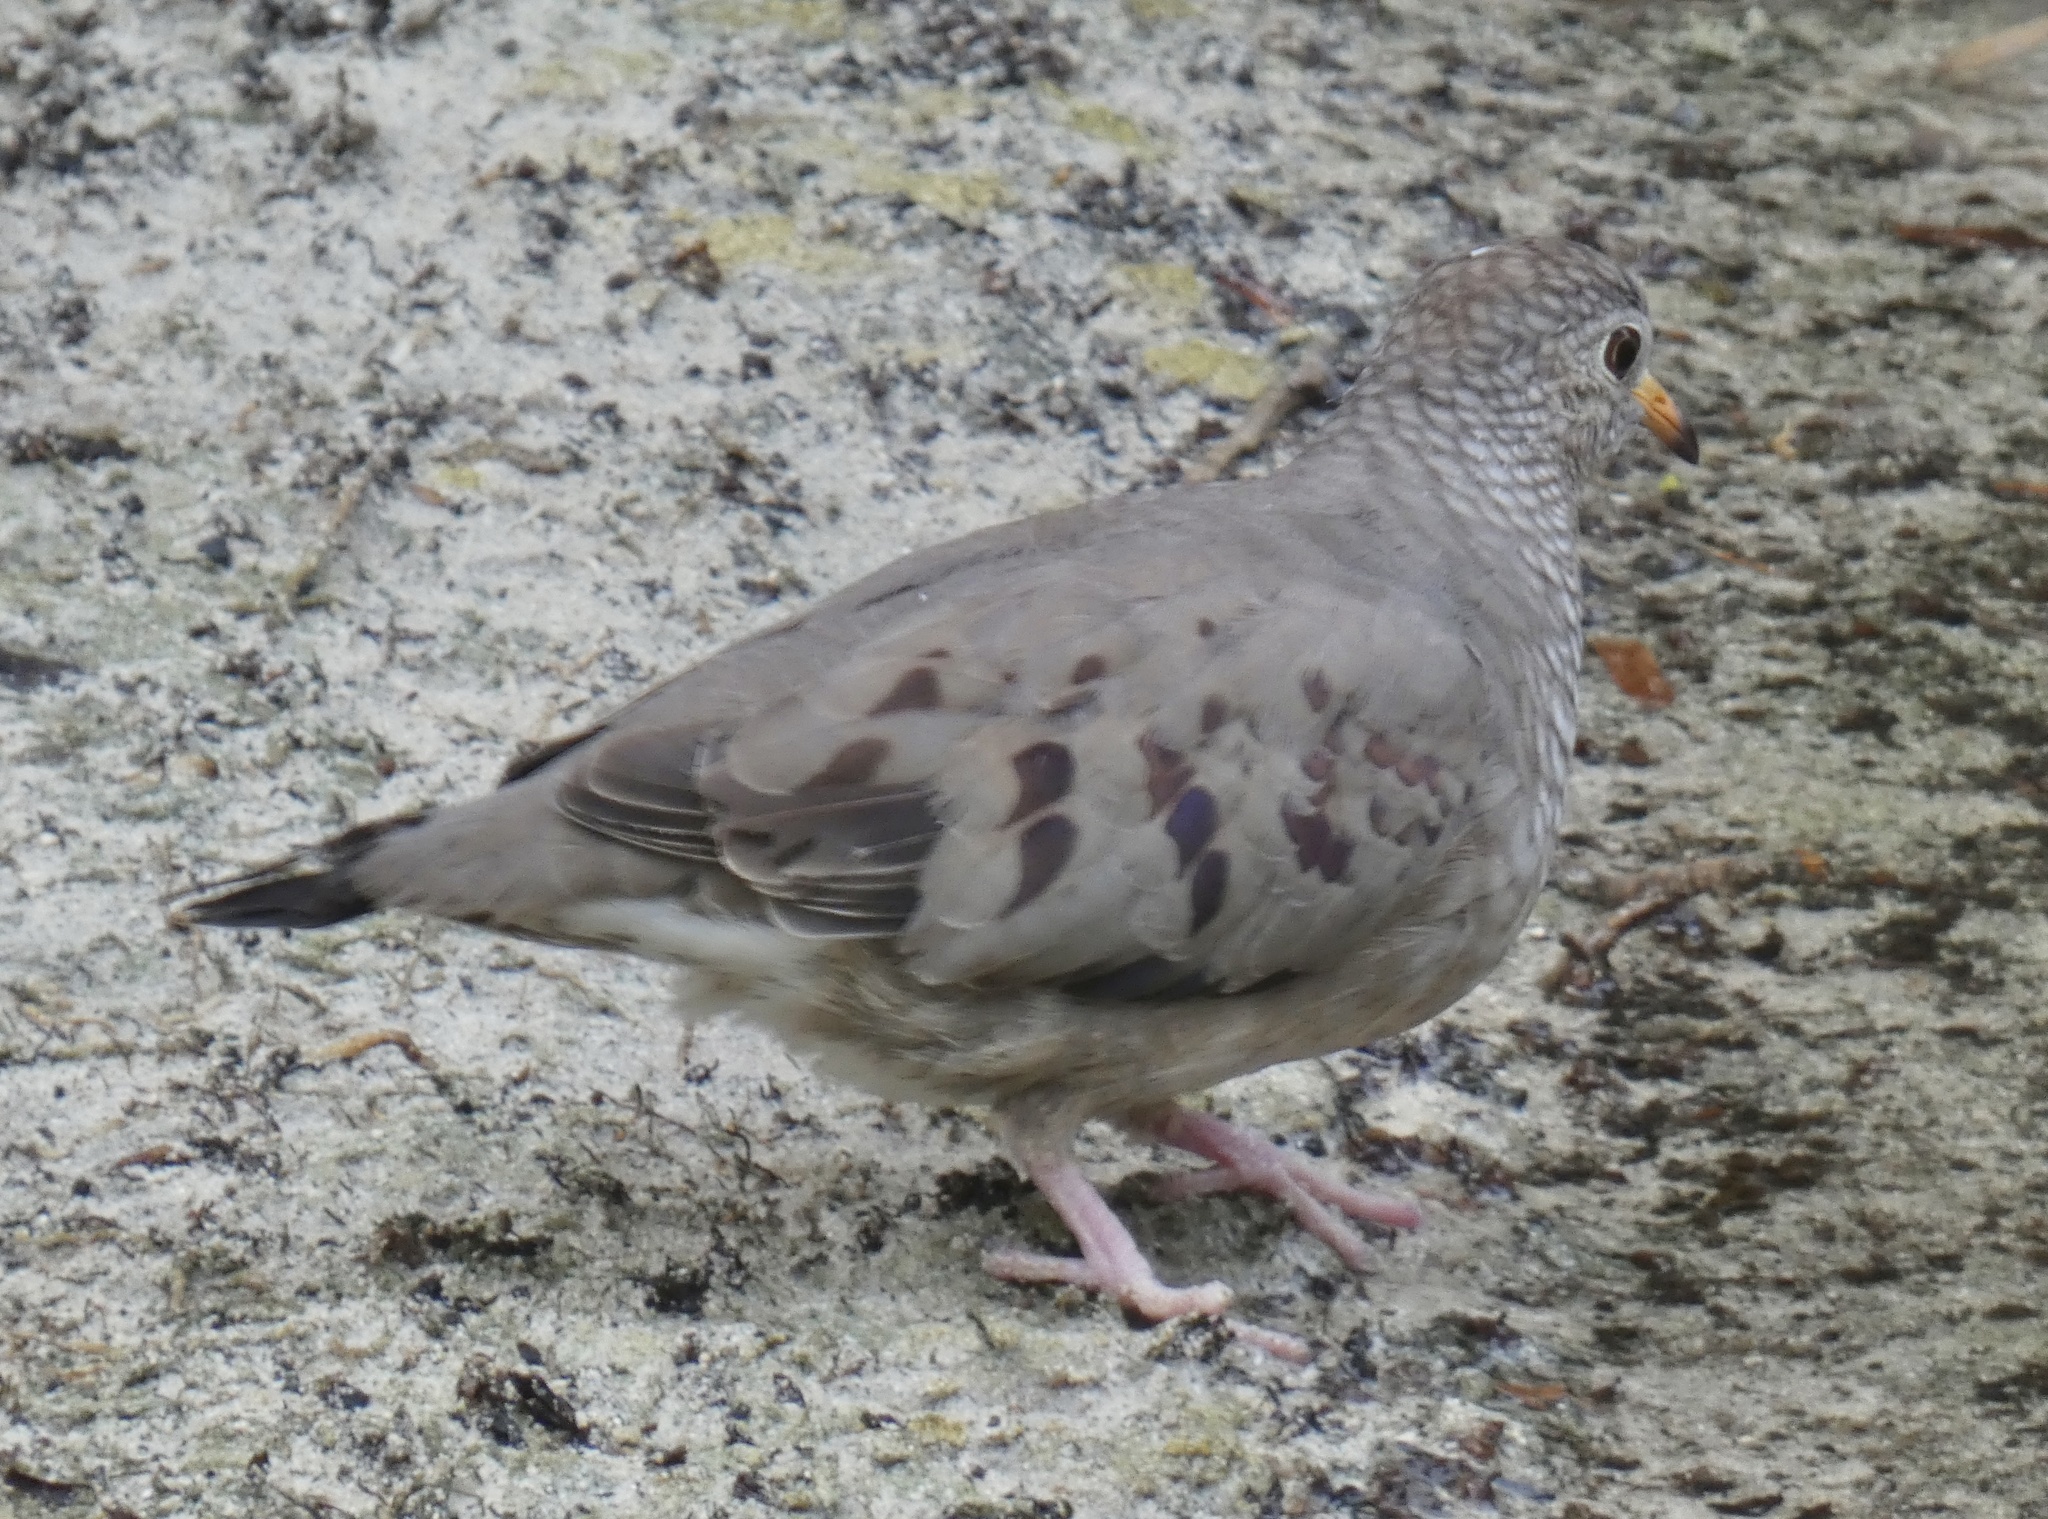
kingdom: Animalia
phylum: Chordata
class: Aves
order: Columbiformes
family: Columbidae
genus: Columbina
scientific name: Columbina passerina
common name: Common ground-dove
